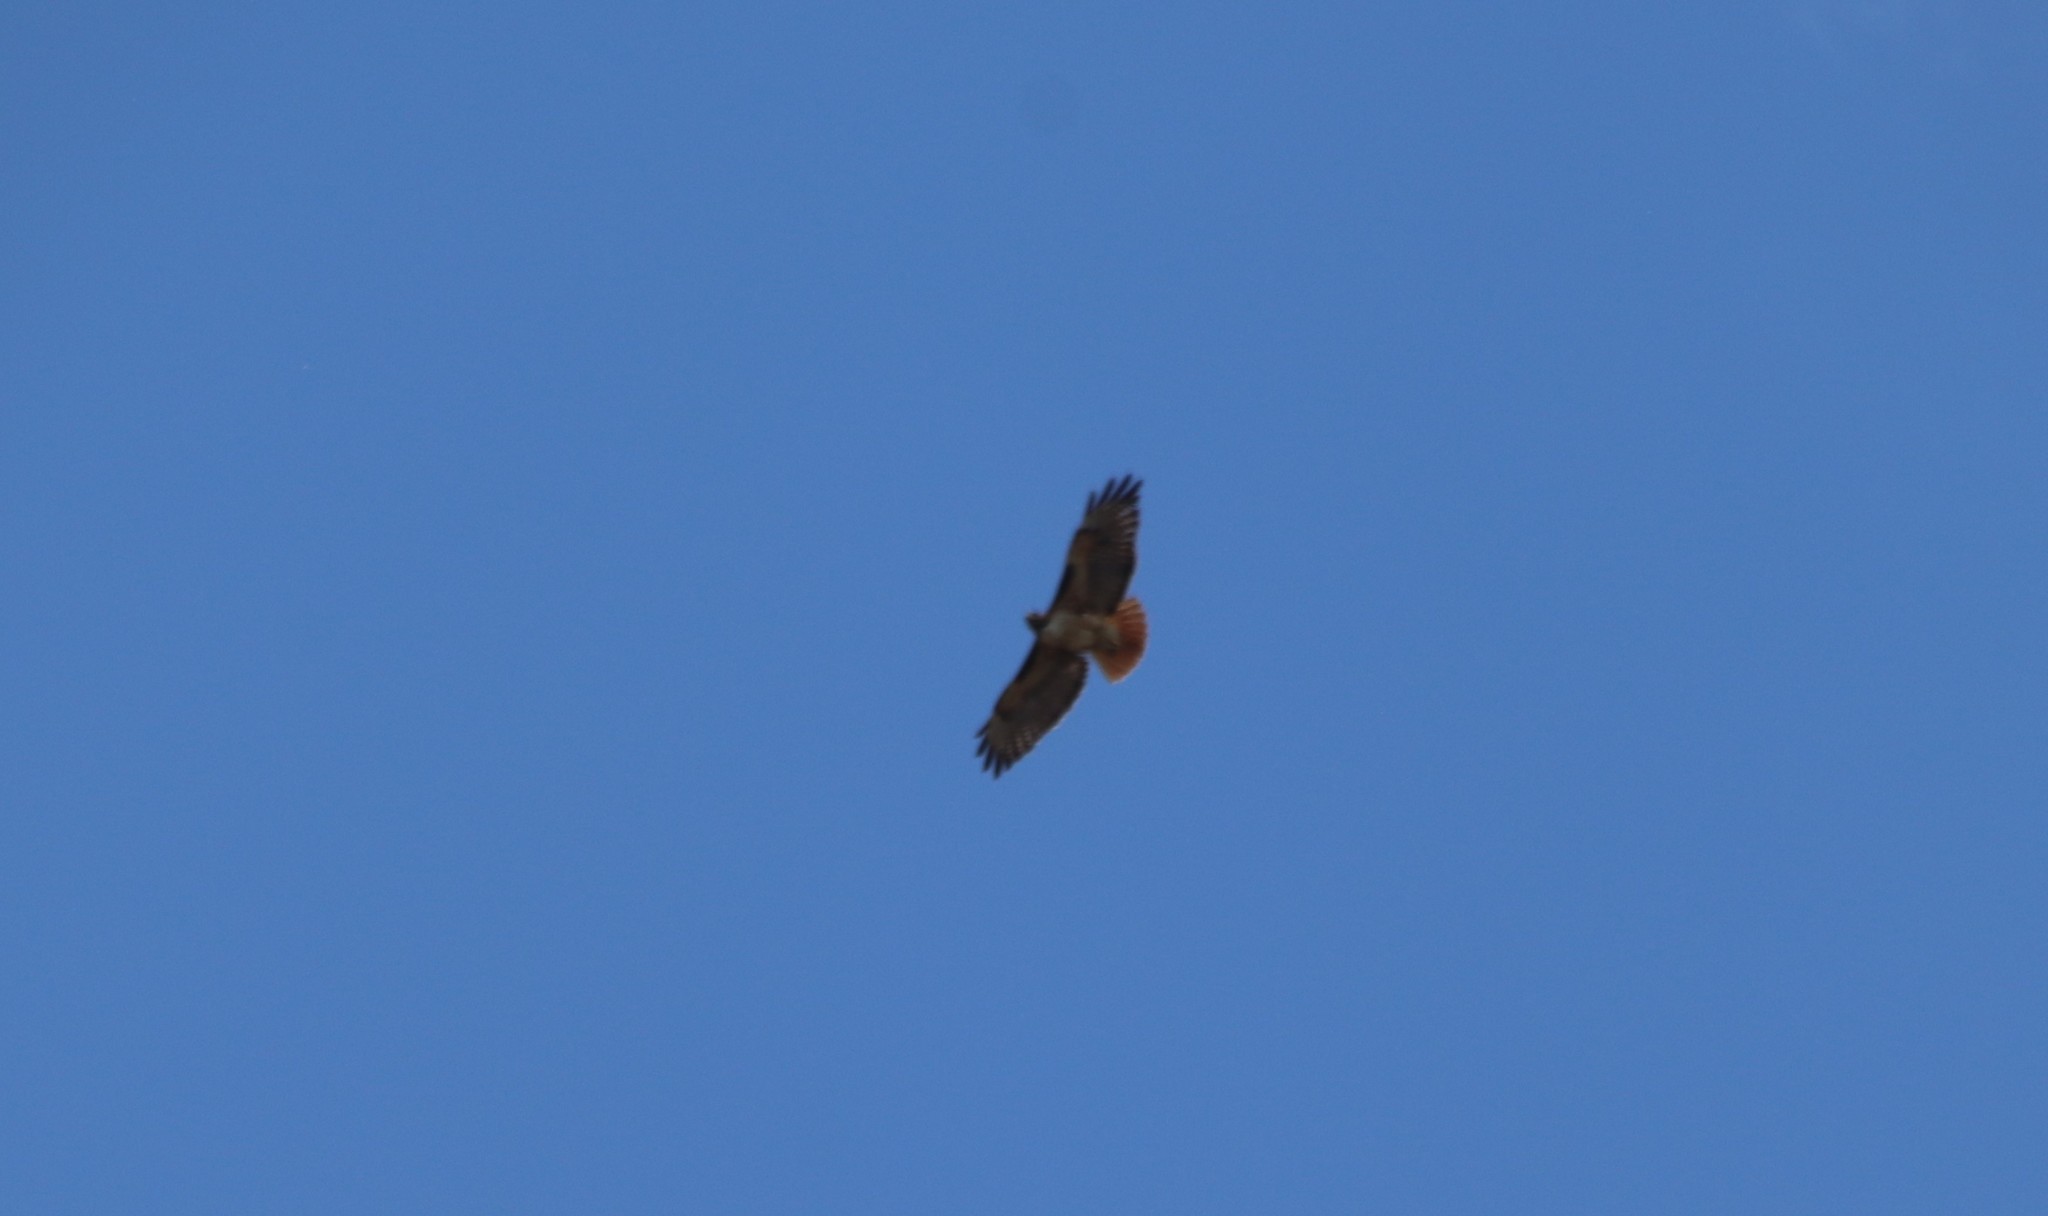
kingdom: Animalia
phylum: Chordata
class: Aves
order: Accipitriformes
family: Accipitridae
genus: Buteo
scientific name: Buteo jamaicensis
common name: Red-tailed hawk
